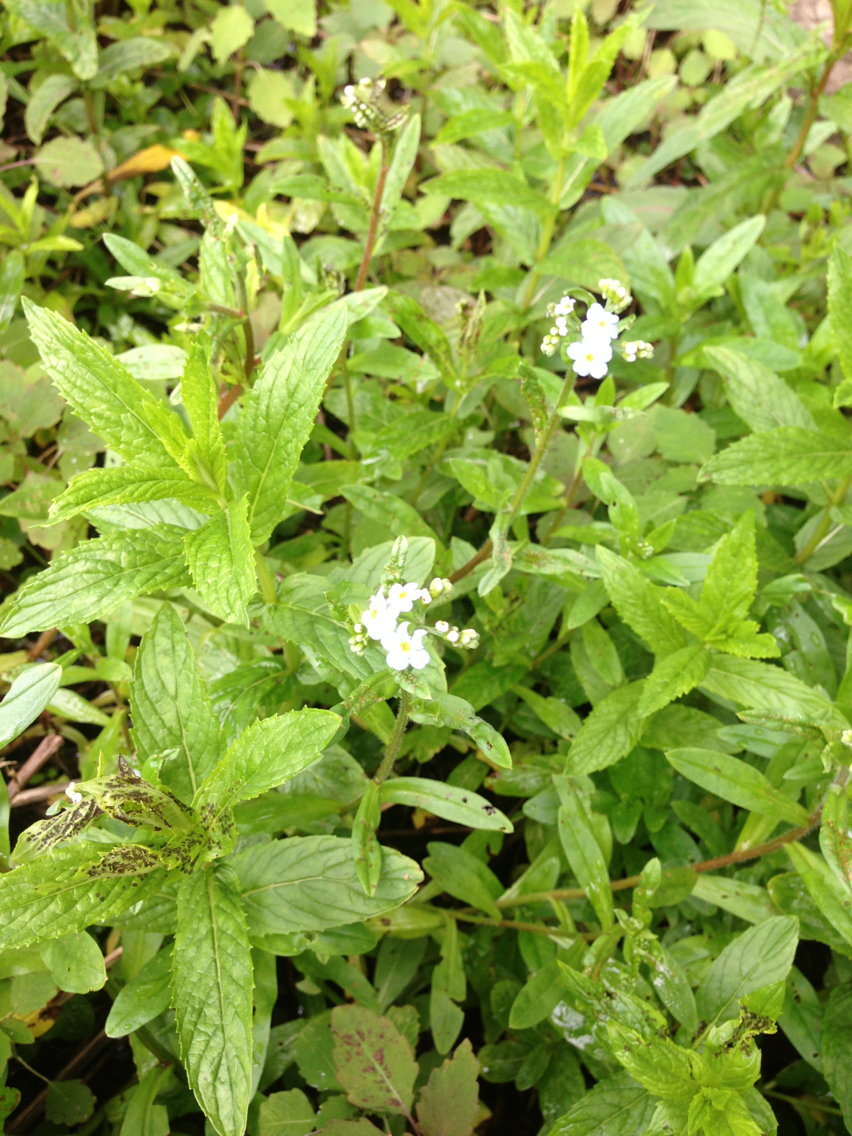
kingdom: Plantae
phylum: Tracheophyta
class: Magnoliopsida
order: Lamiales
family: Lamiaceae
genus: Mentha
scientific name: Mentha spicata
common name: Spearmint
